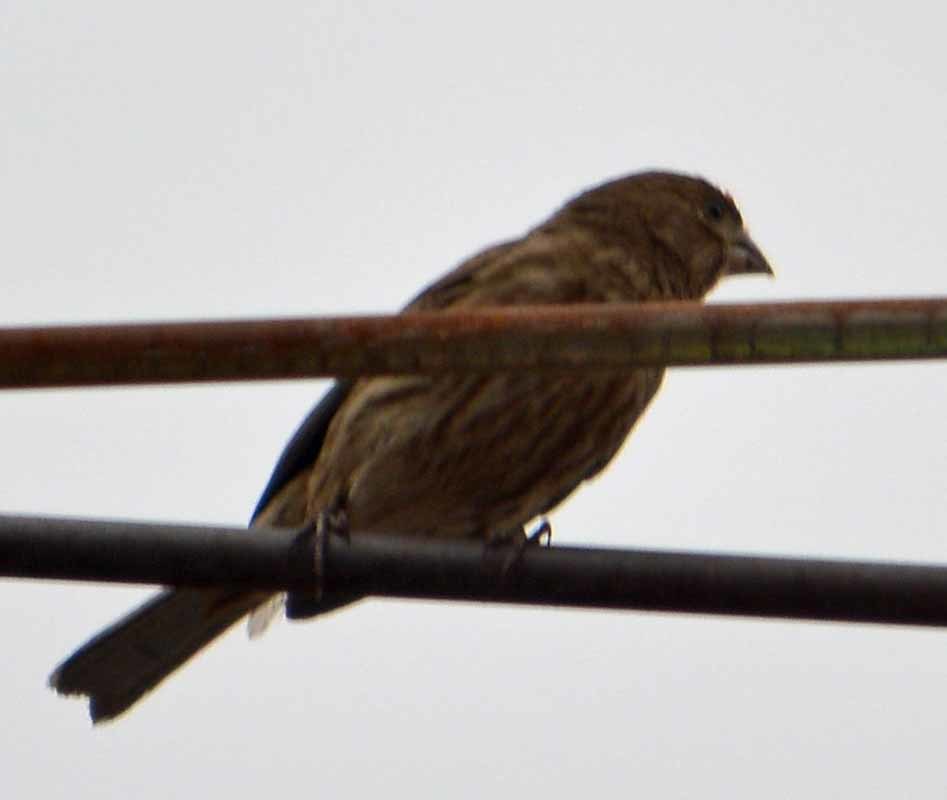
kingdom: Animalia
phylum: Chordata
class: Aves
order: Passeriformes
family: Fringillidae
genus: Haemorhous
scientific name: Haemorhous mexicanus
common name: House finch
